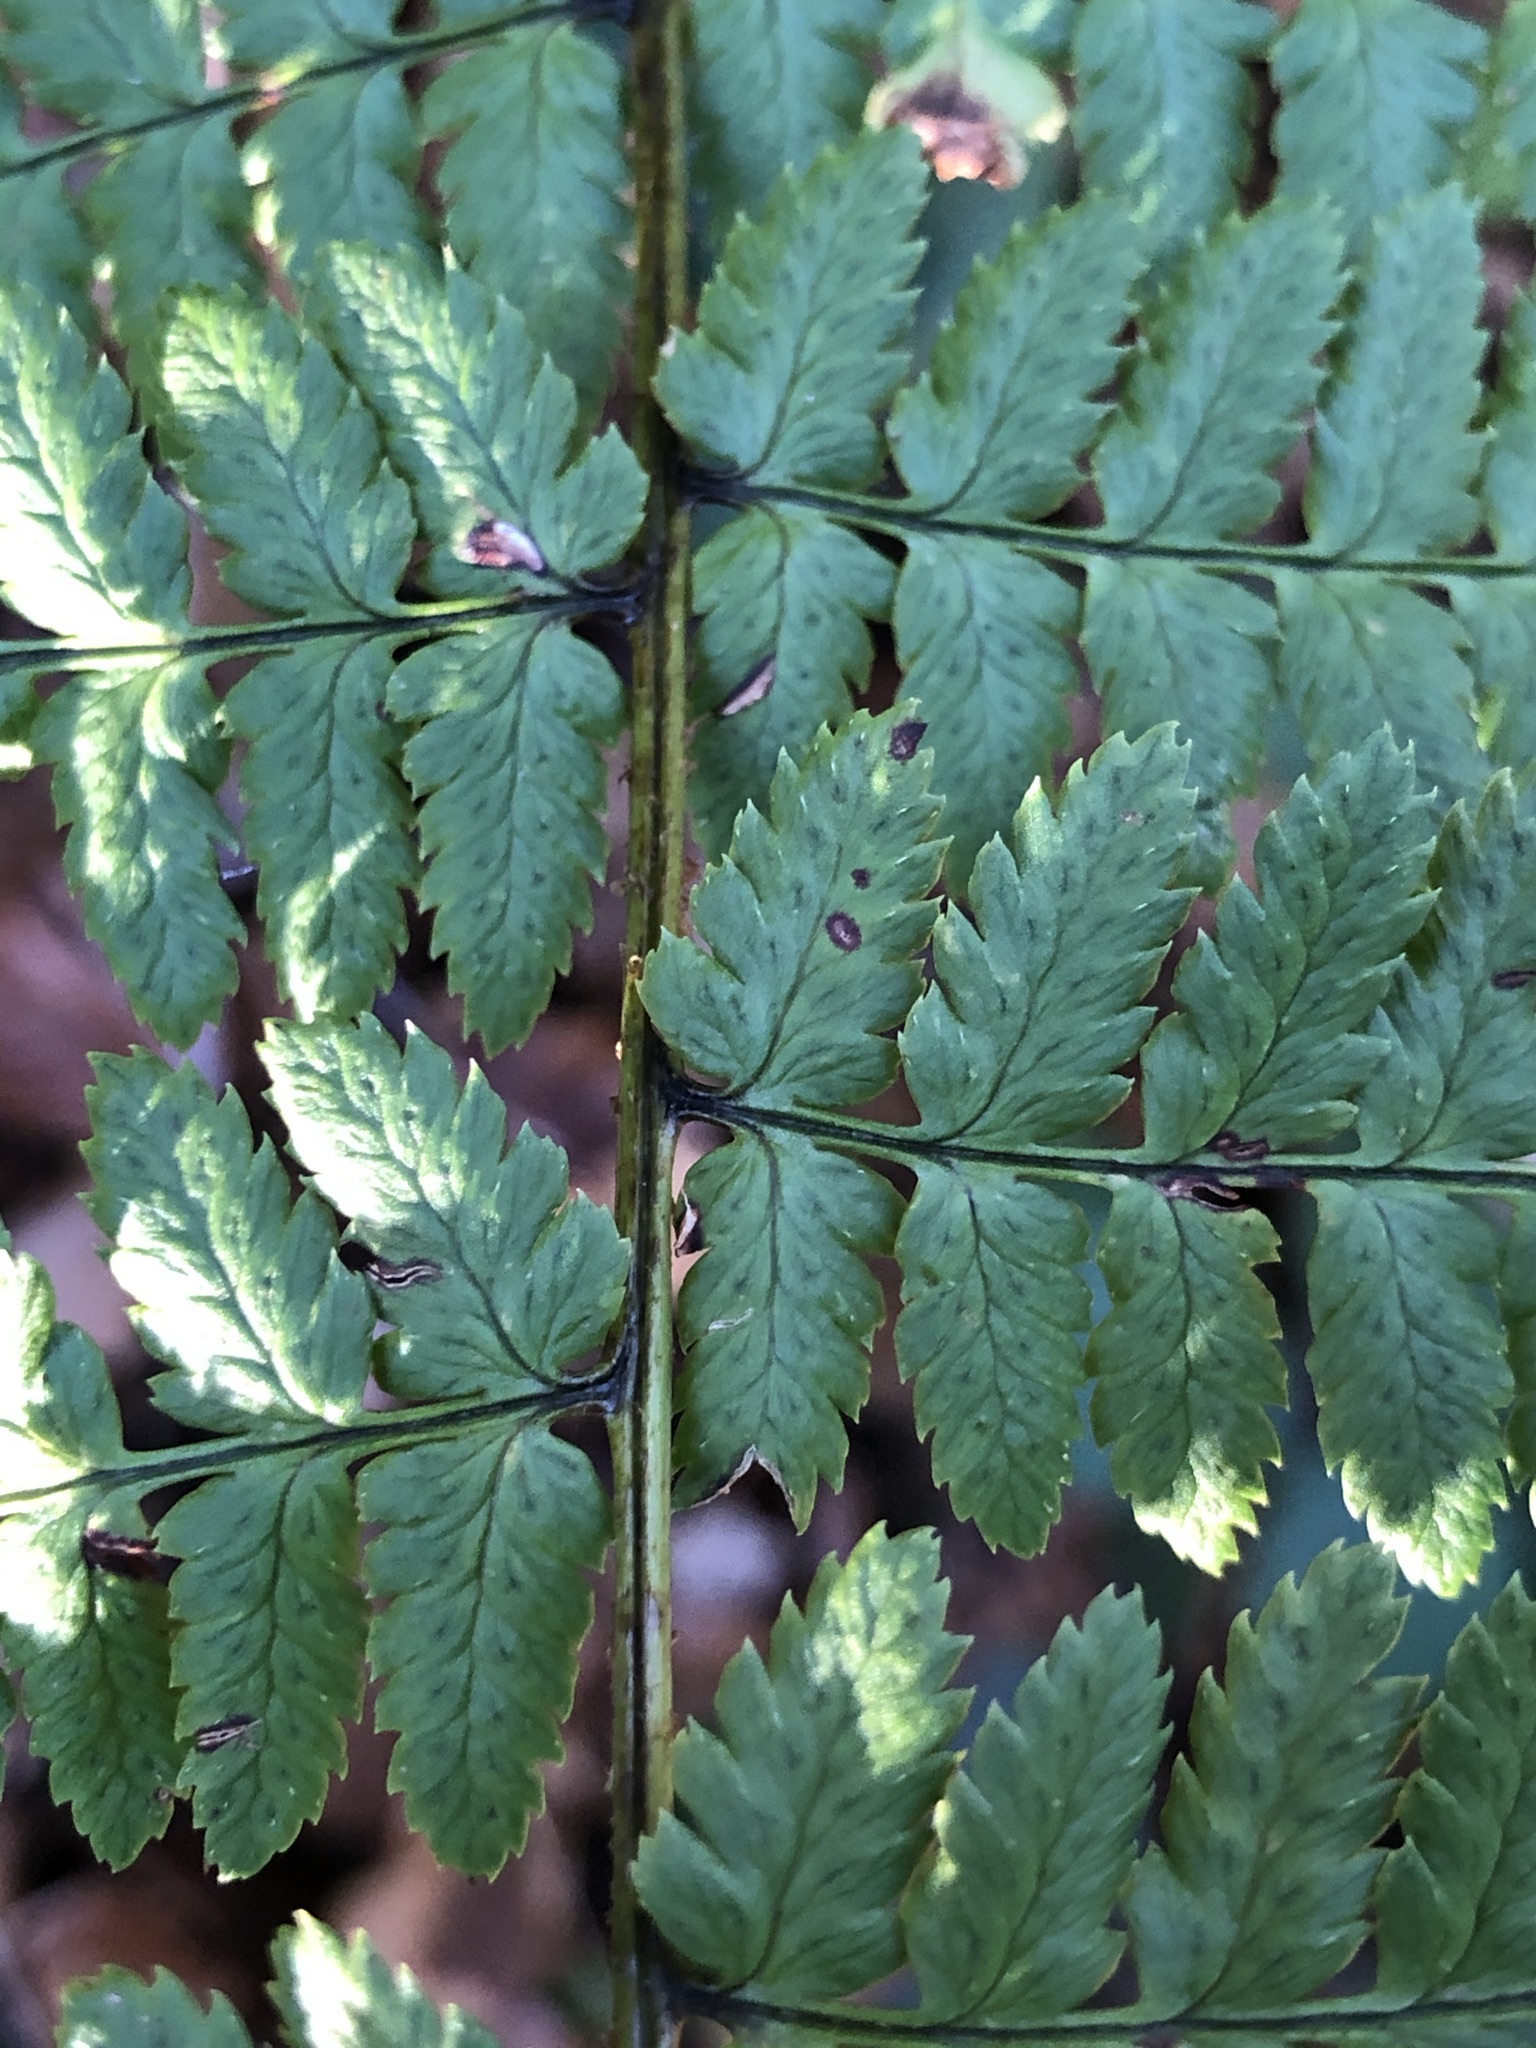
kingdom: Plantae
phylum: Tracheophyta
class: Polypodiopsida
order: Polypodiales
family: Dryopteridaceae
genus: Dryopteris
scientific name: Dryopteris remota
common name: Scaly buckler-fern
